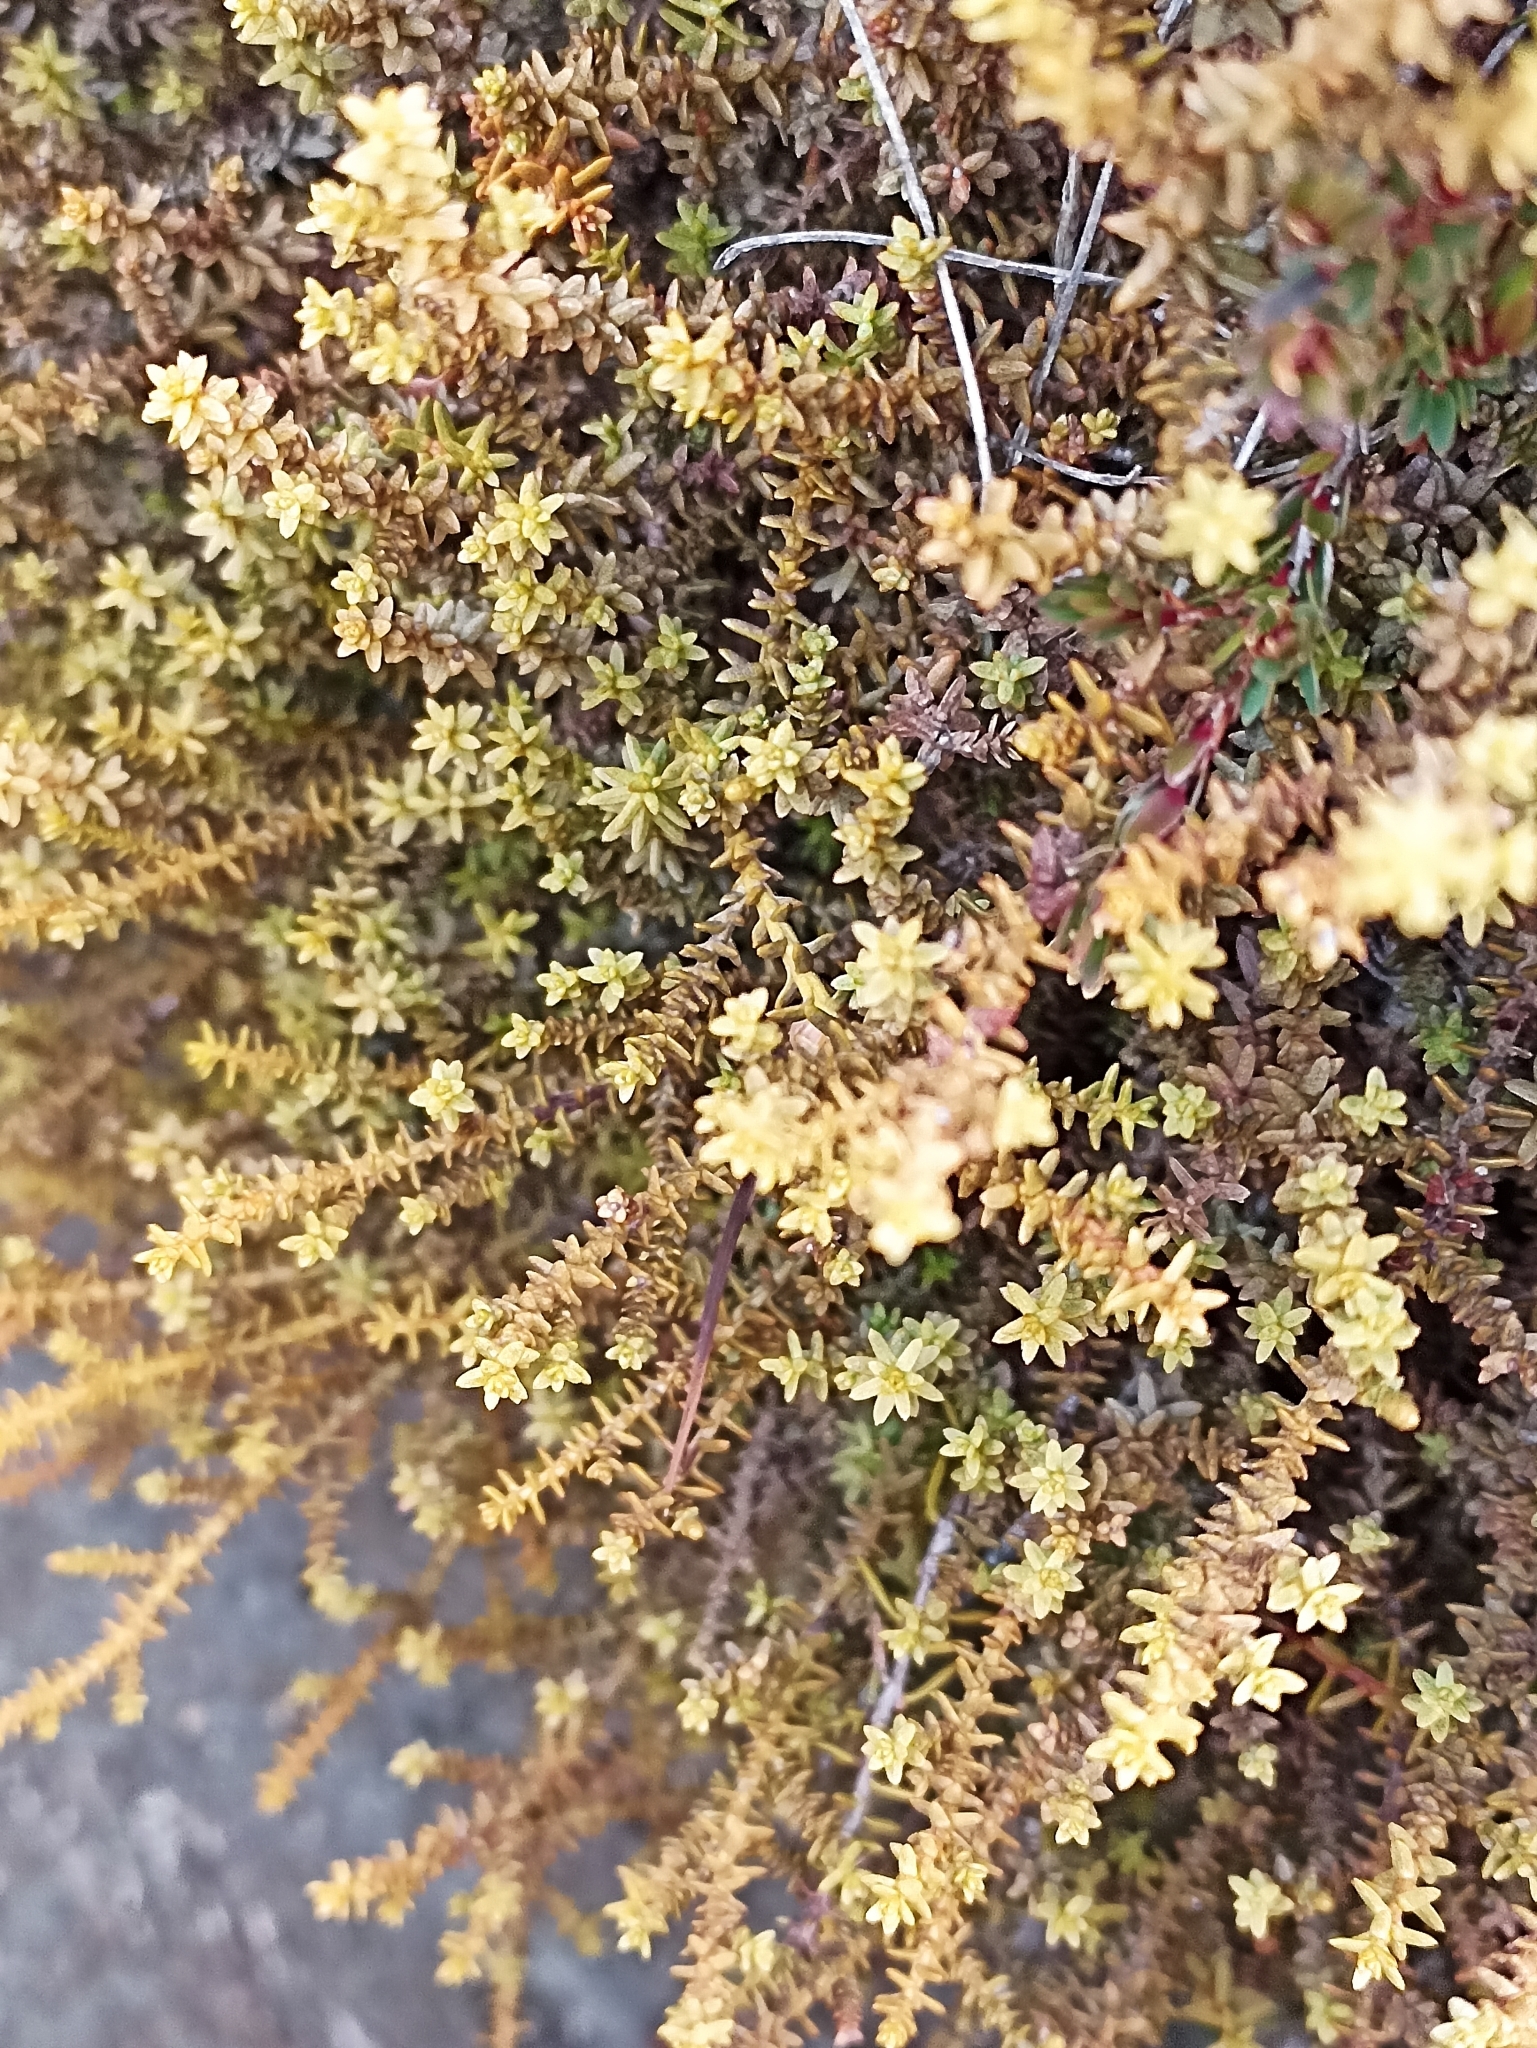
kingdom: Plantae
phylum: Tracheophyta
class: Pinopsida
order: Pinales
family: Podocarpaceae
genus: Lepidothamnus
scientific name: Lepidothamnus laxifolius
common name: Pygmy pine
